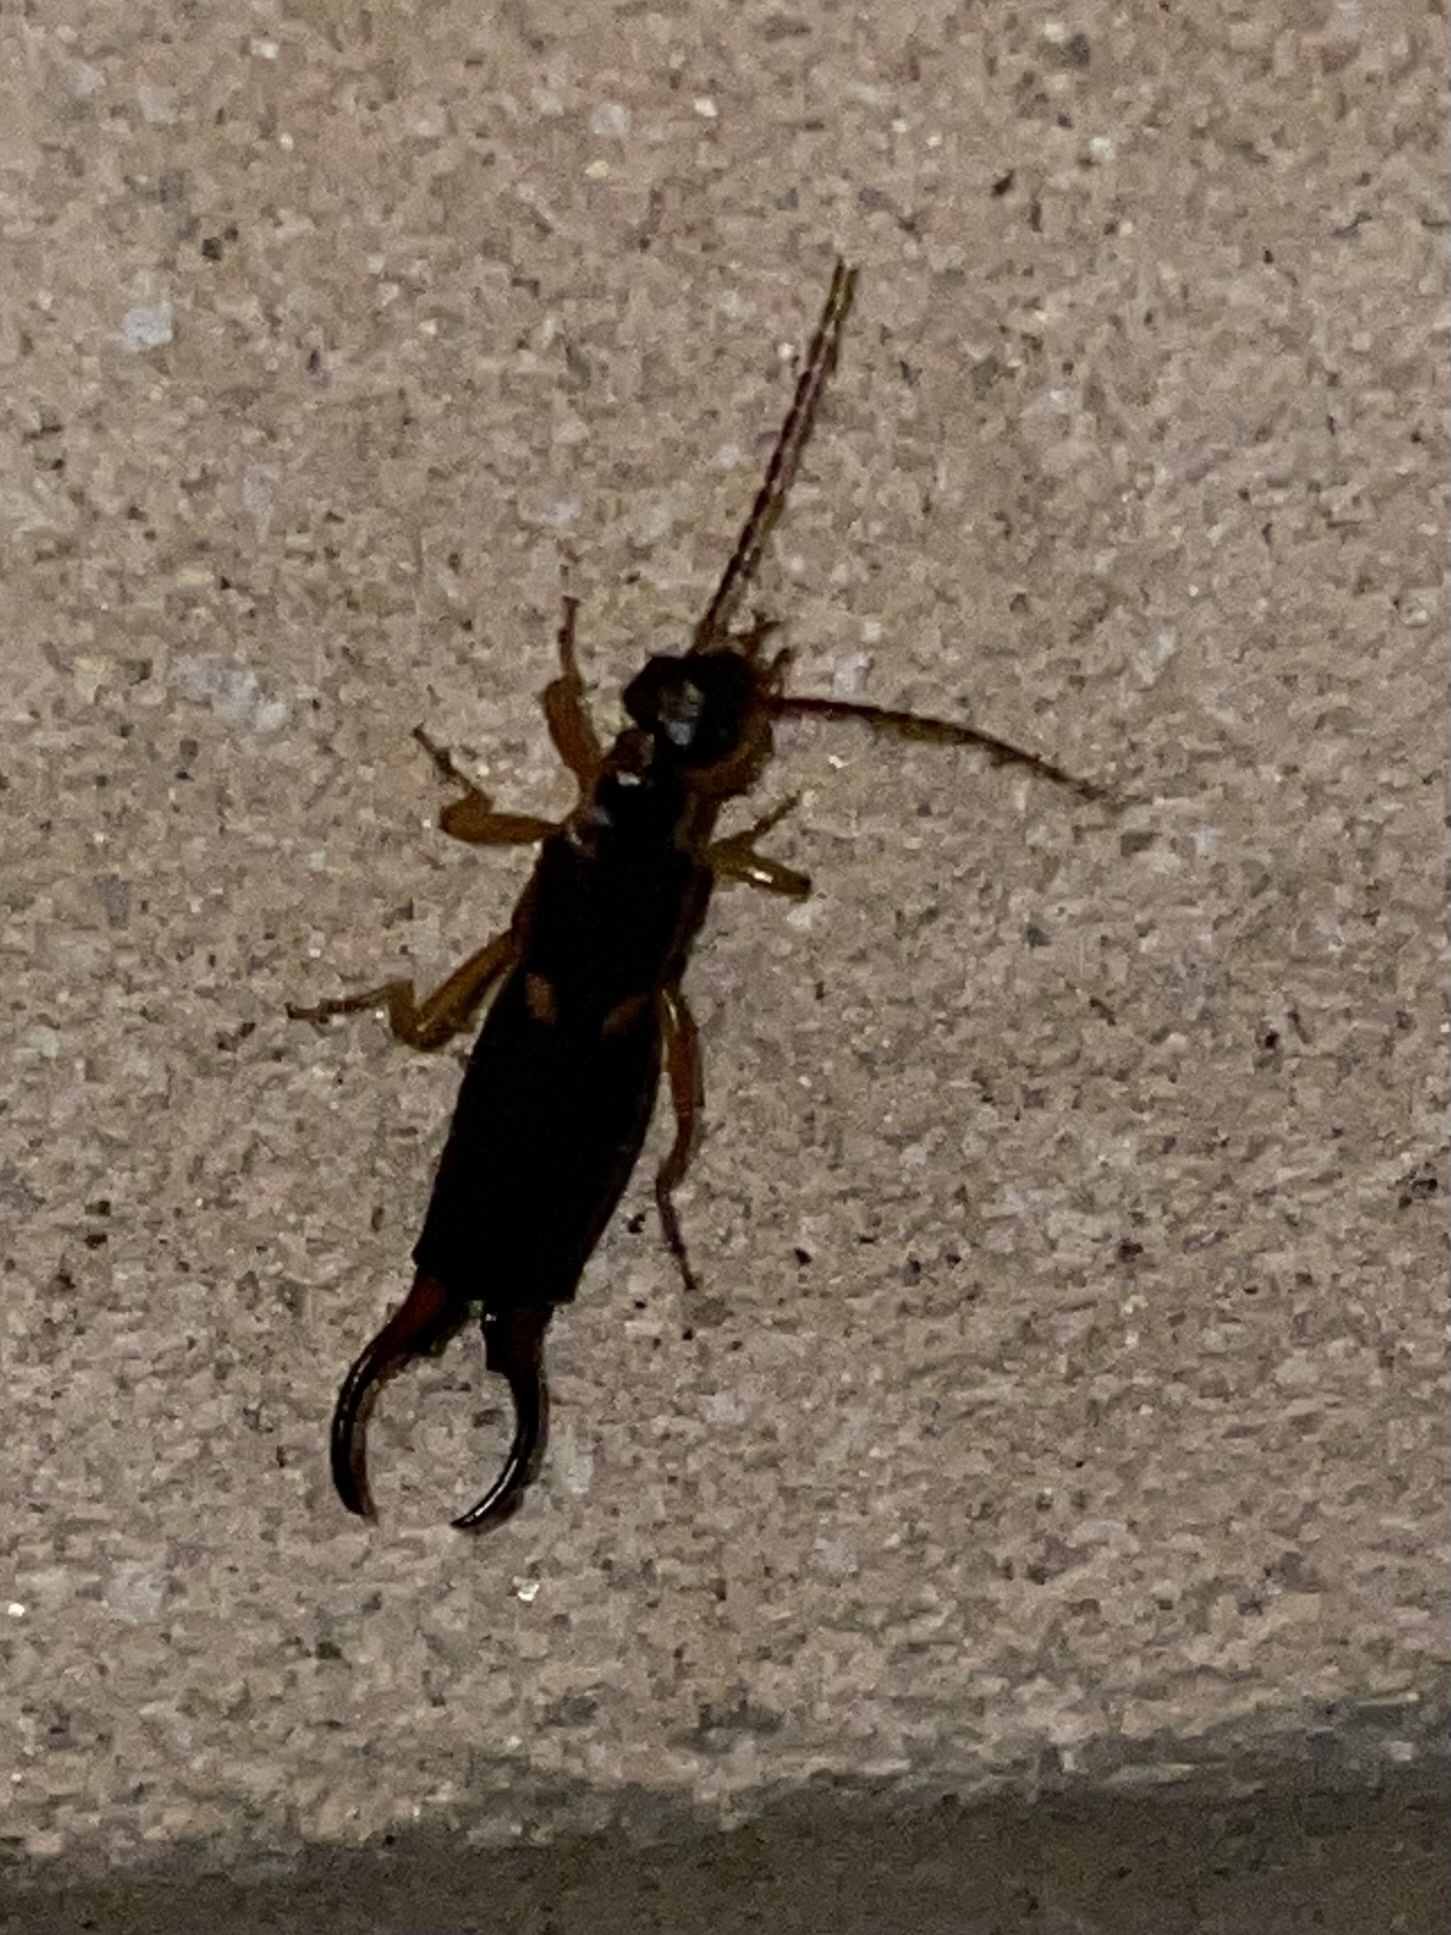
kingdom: Animalia
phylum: Arthropoda
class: Insecta
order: Dermaptera
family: Forficulidae
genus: Forficula
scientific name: Forficula
